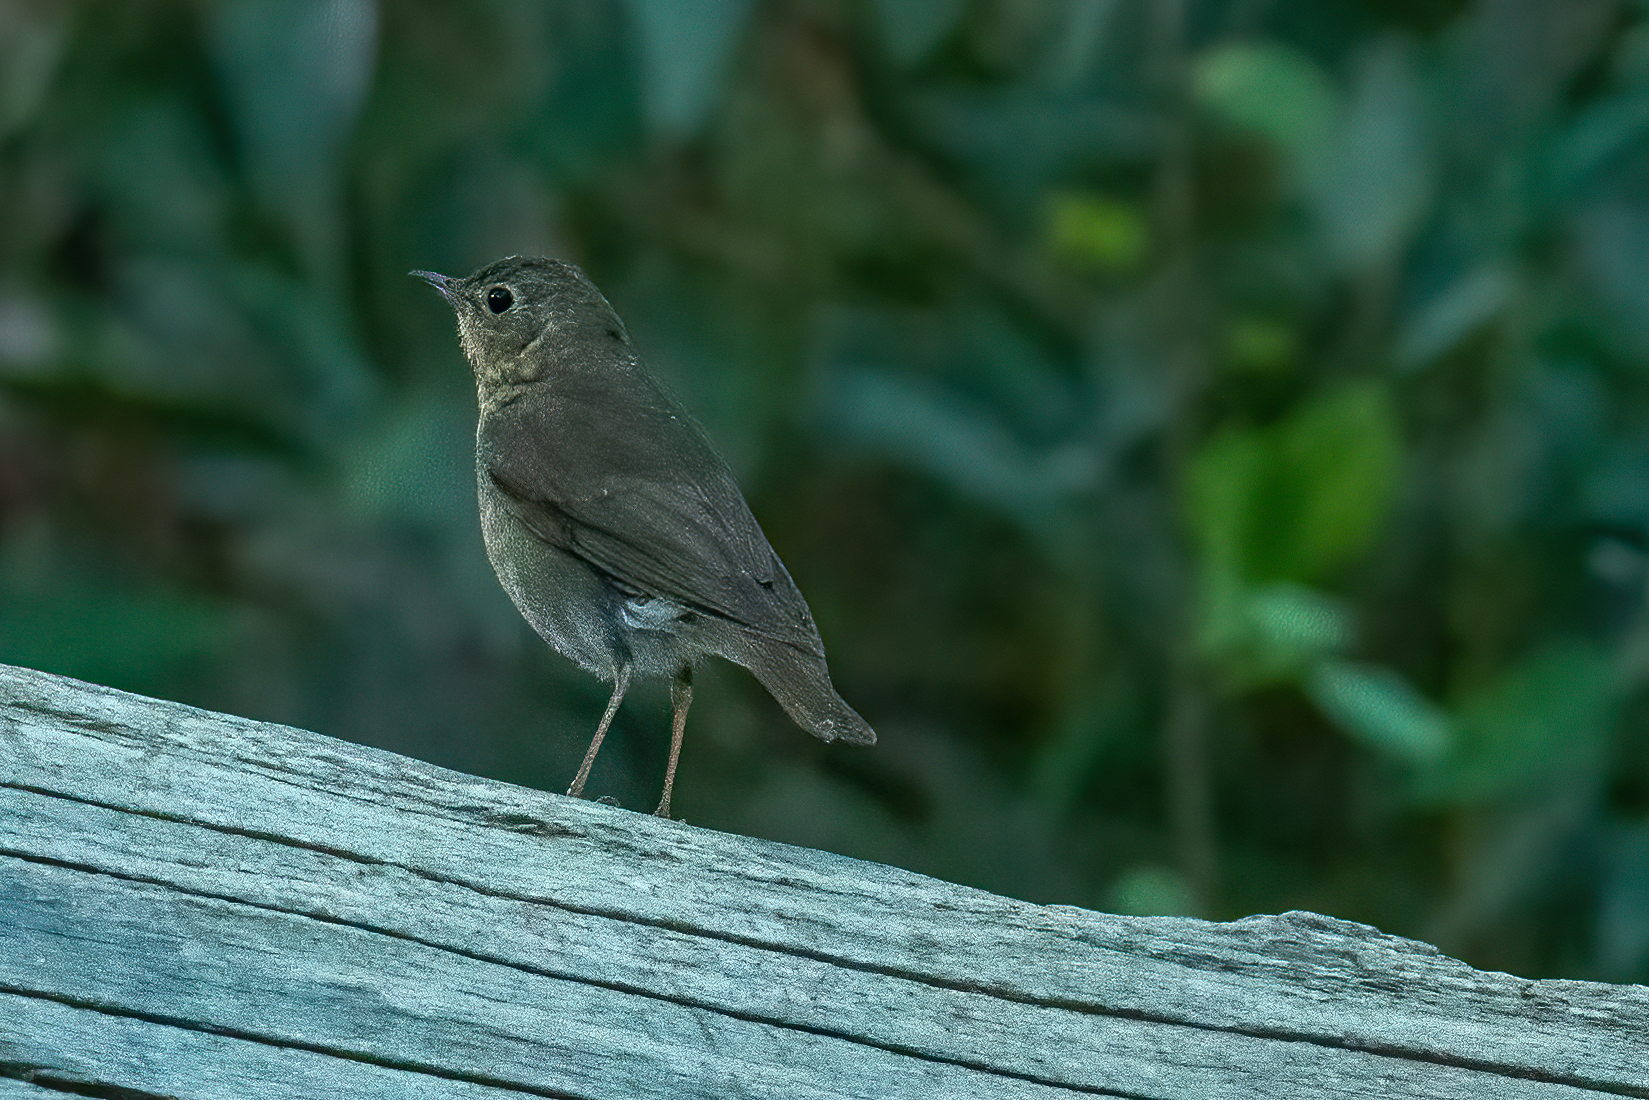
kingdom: Animalia
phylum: Chordata
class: Aves
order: Passeriformes
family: Turdidae
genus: Catharus
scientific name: Catharus ustulatus
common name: Swainson's thrush
